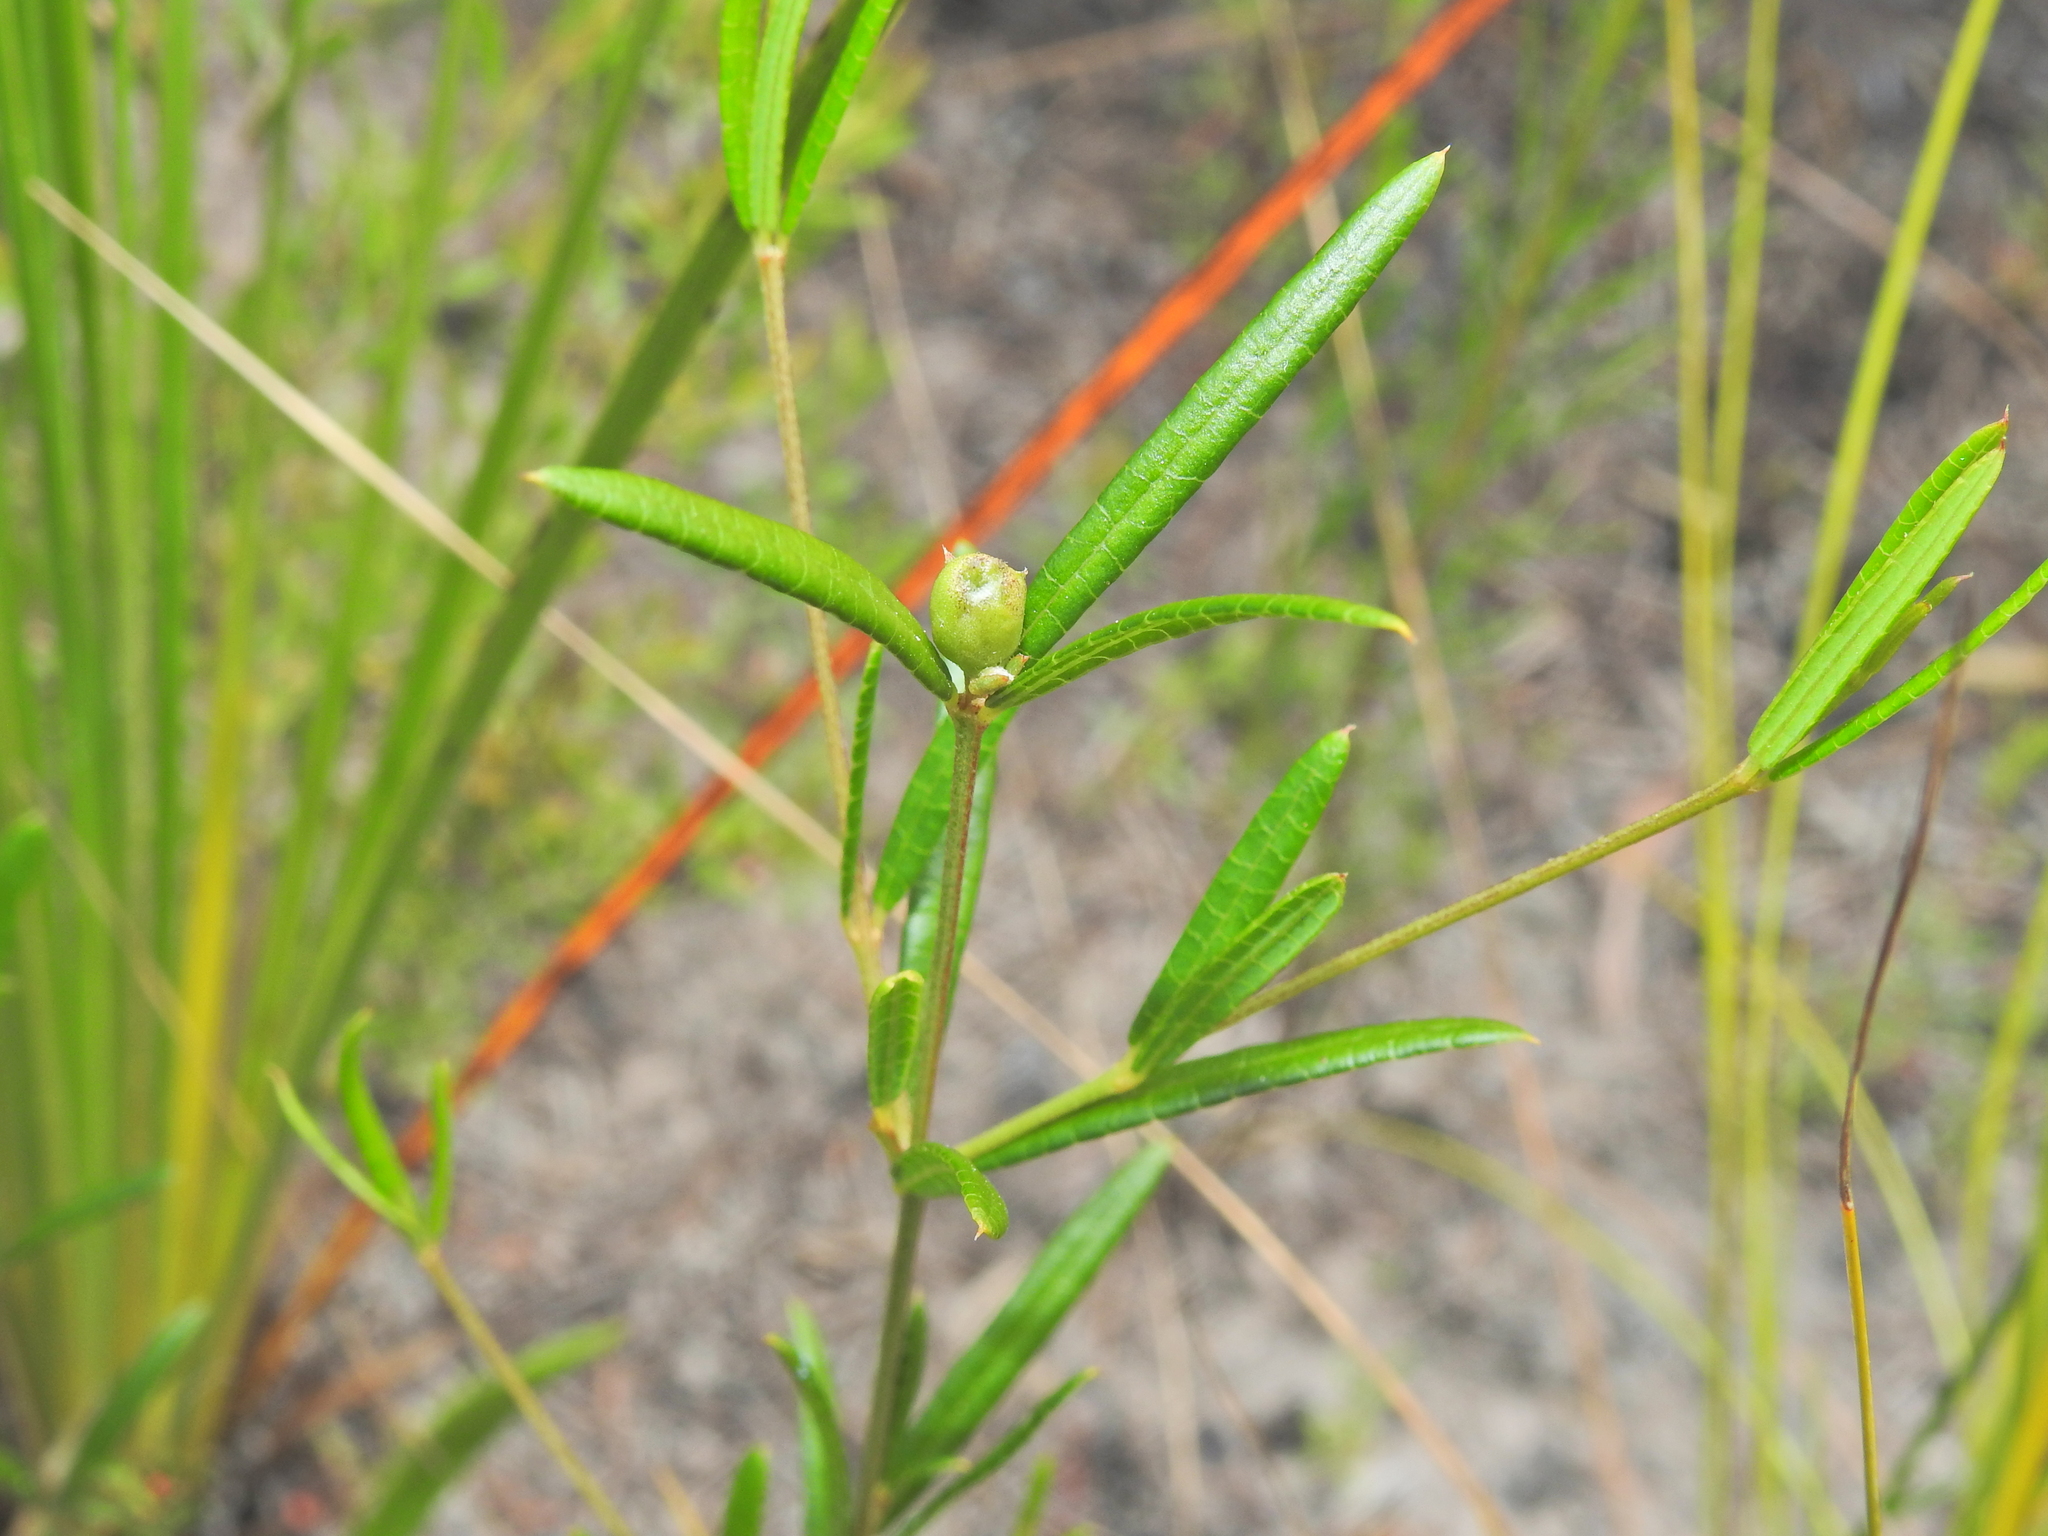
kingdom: Plantae
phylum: Tracheophyta
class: Magnoliopsida
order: Fabales
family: Fabaceae
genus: Mirbelia
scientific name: Mirbelia rubiifolia
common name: Heathy mirbelia
